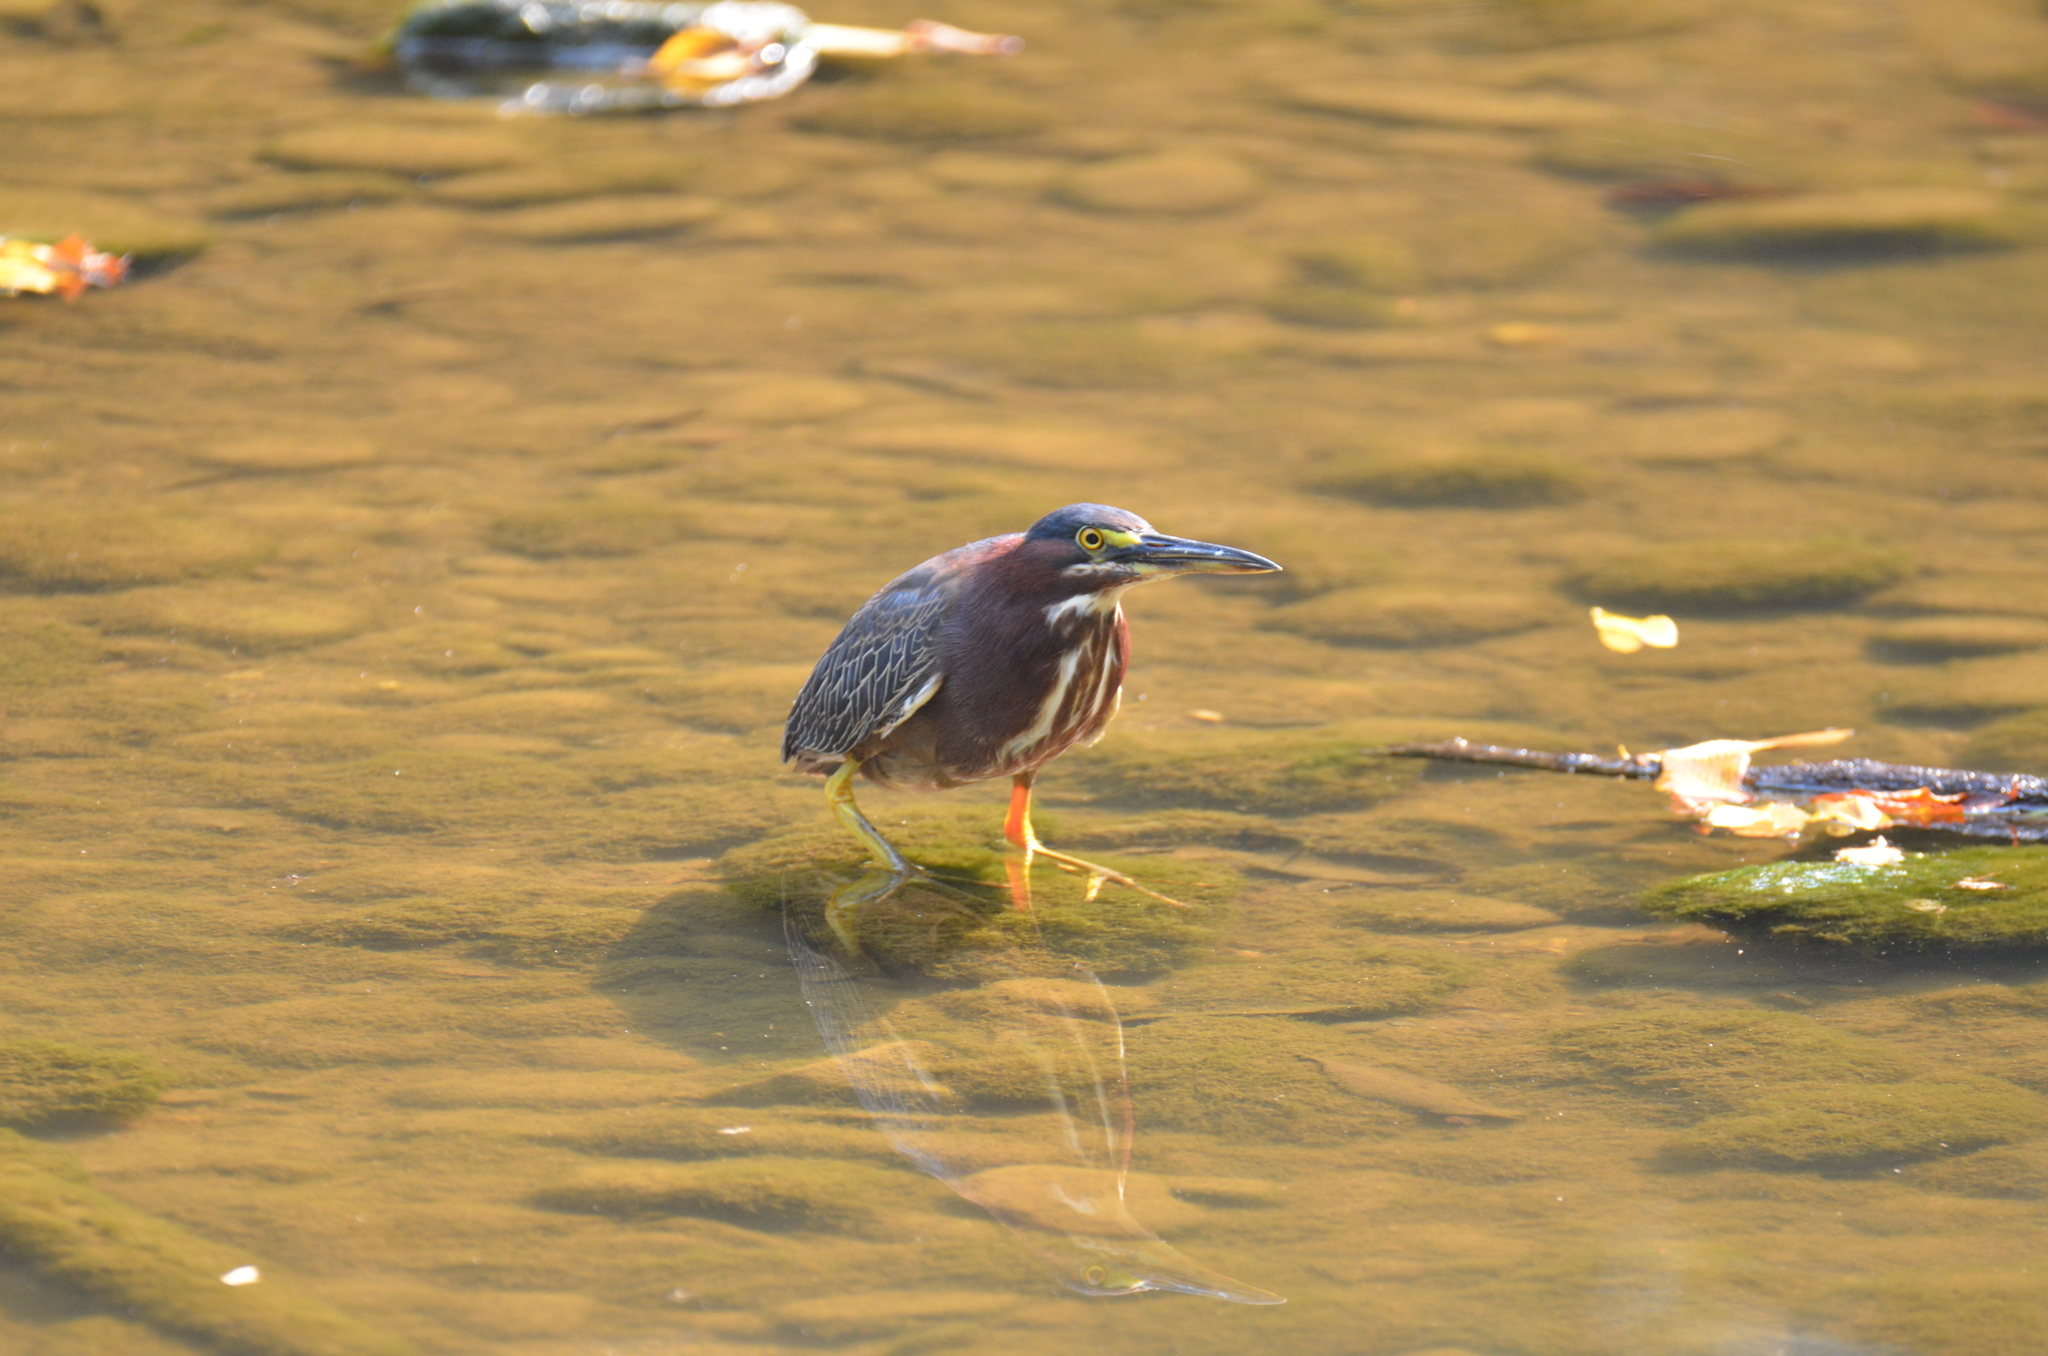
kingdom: Animalia
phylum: Chordata
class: Aves
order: Pelecaniformes
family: Ardeidae
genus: Butorides
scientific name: Butorides virescens
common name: Green heron
